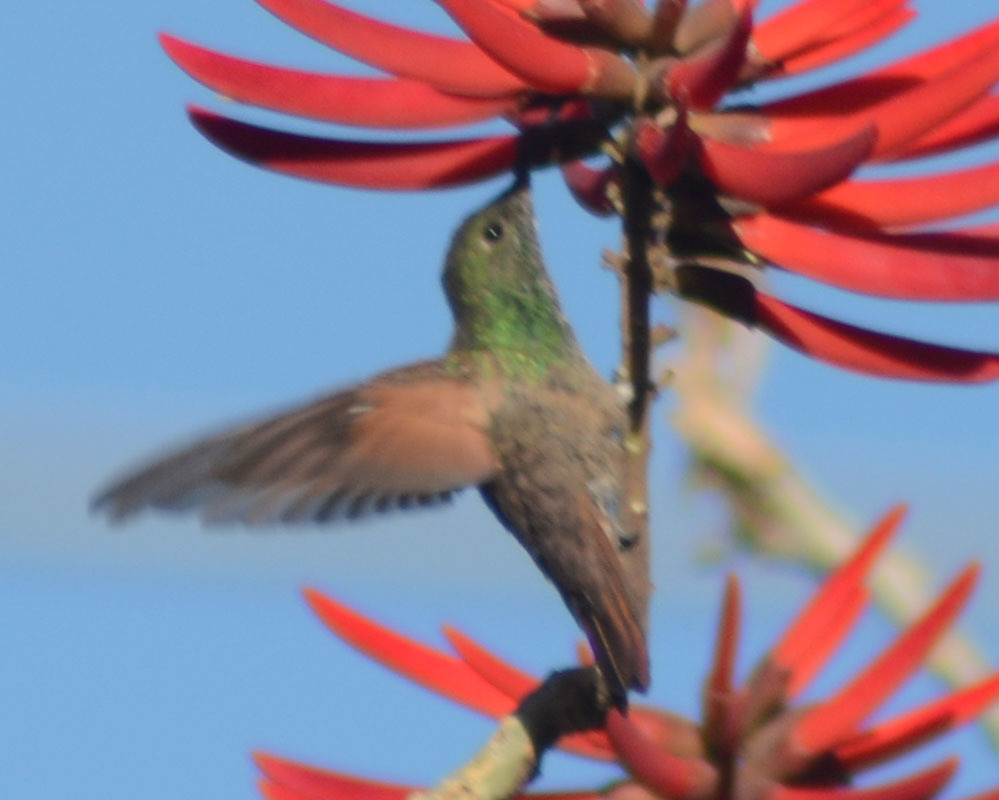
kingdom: Animalia
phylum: Chordata
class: Aves
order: Apodiformes
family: Trochilidae
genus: Saucerottia
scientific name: Saucerottia beryllina
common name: Berylline hummingbird
